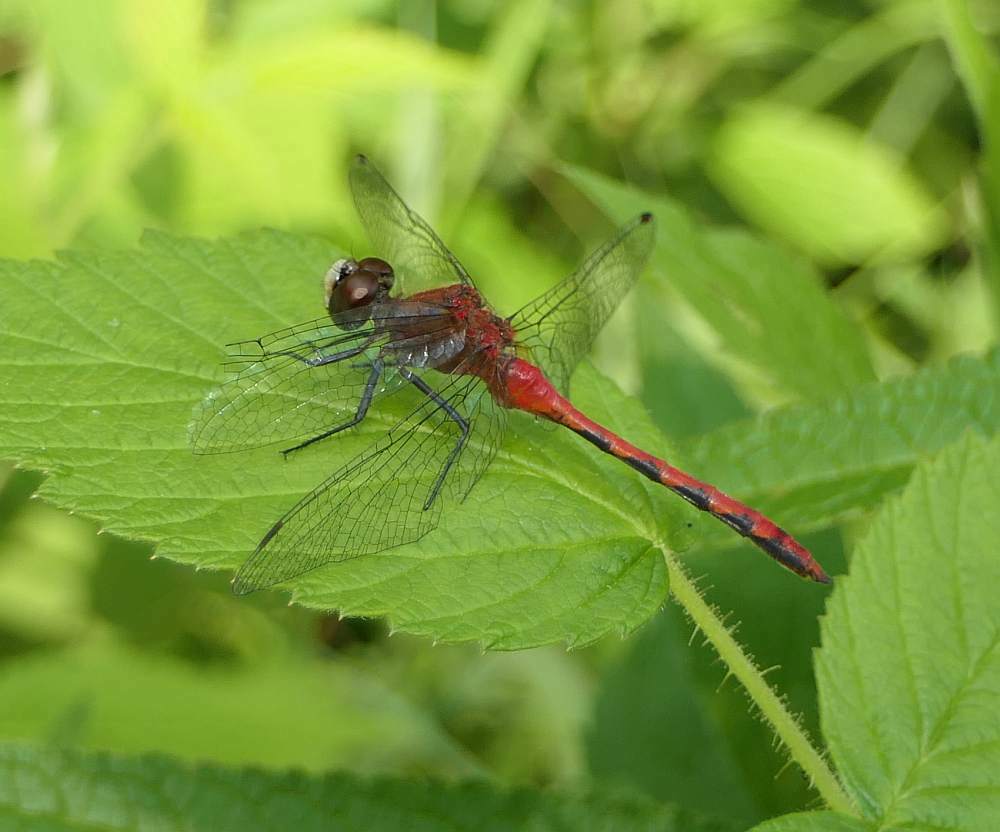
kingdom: Animalia
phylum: Arthropoda
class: Insecta
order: Odonata
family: Libellulidae
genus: Sympetrum
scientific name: Sympetrum obtrusum
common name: White-faced meadowhawk
